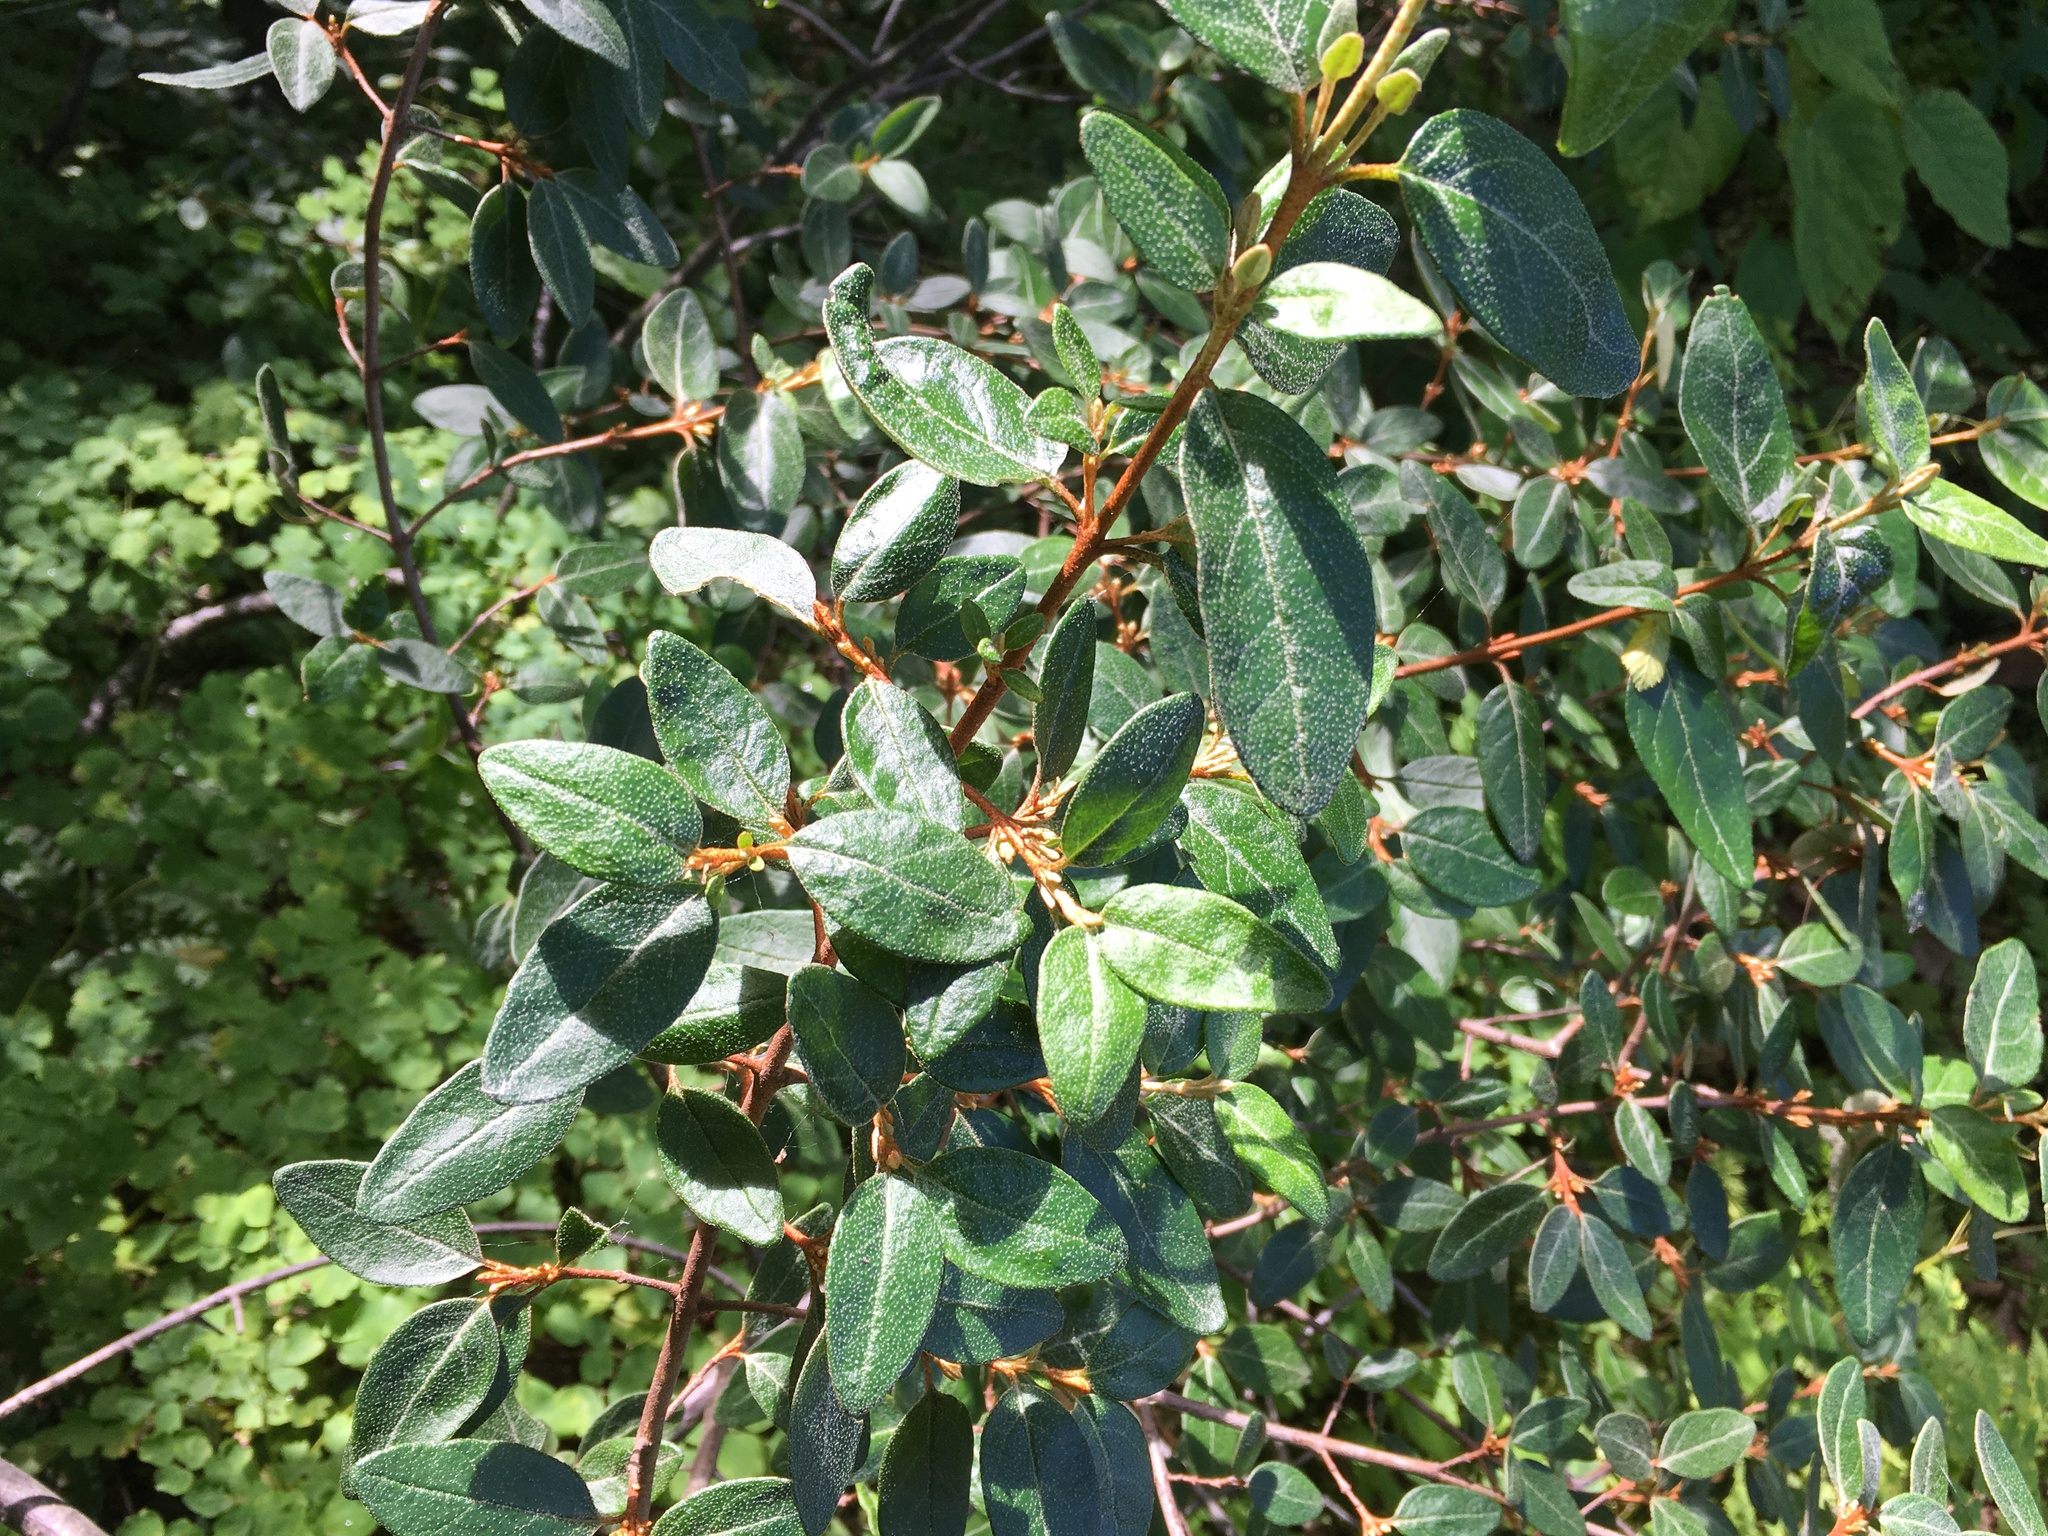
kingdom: Plantae
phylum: Tracheophyta
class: Magnoliopsida
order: Rosales
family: Elaeagnaceae
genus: Shepherdia
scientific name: Shepherdia canadensis
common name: Soapberry
